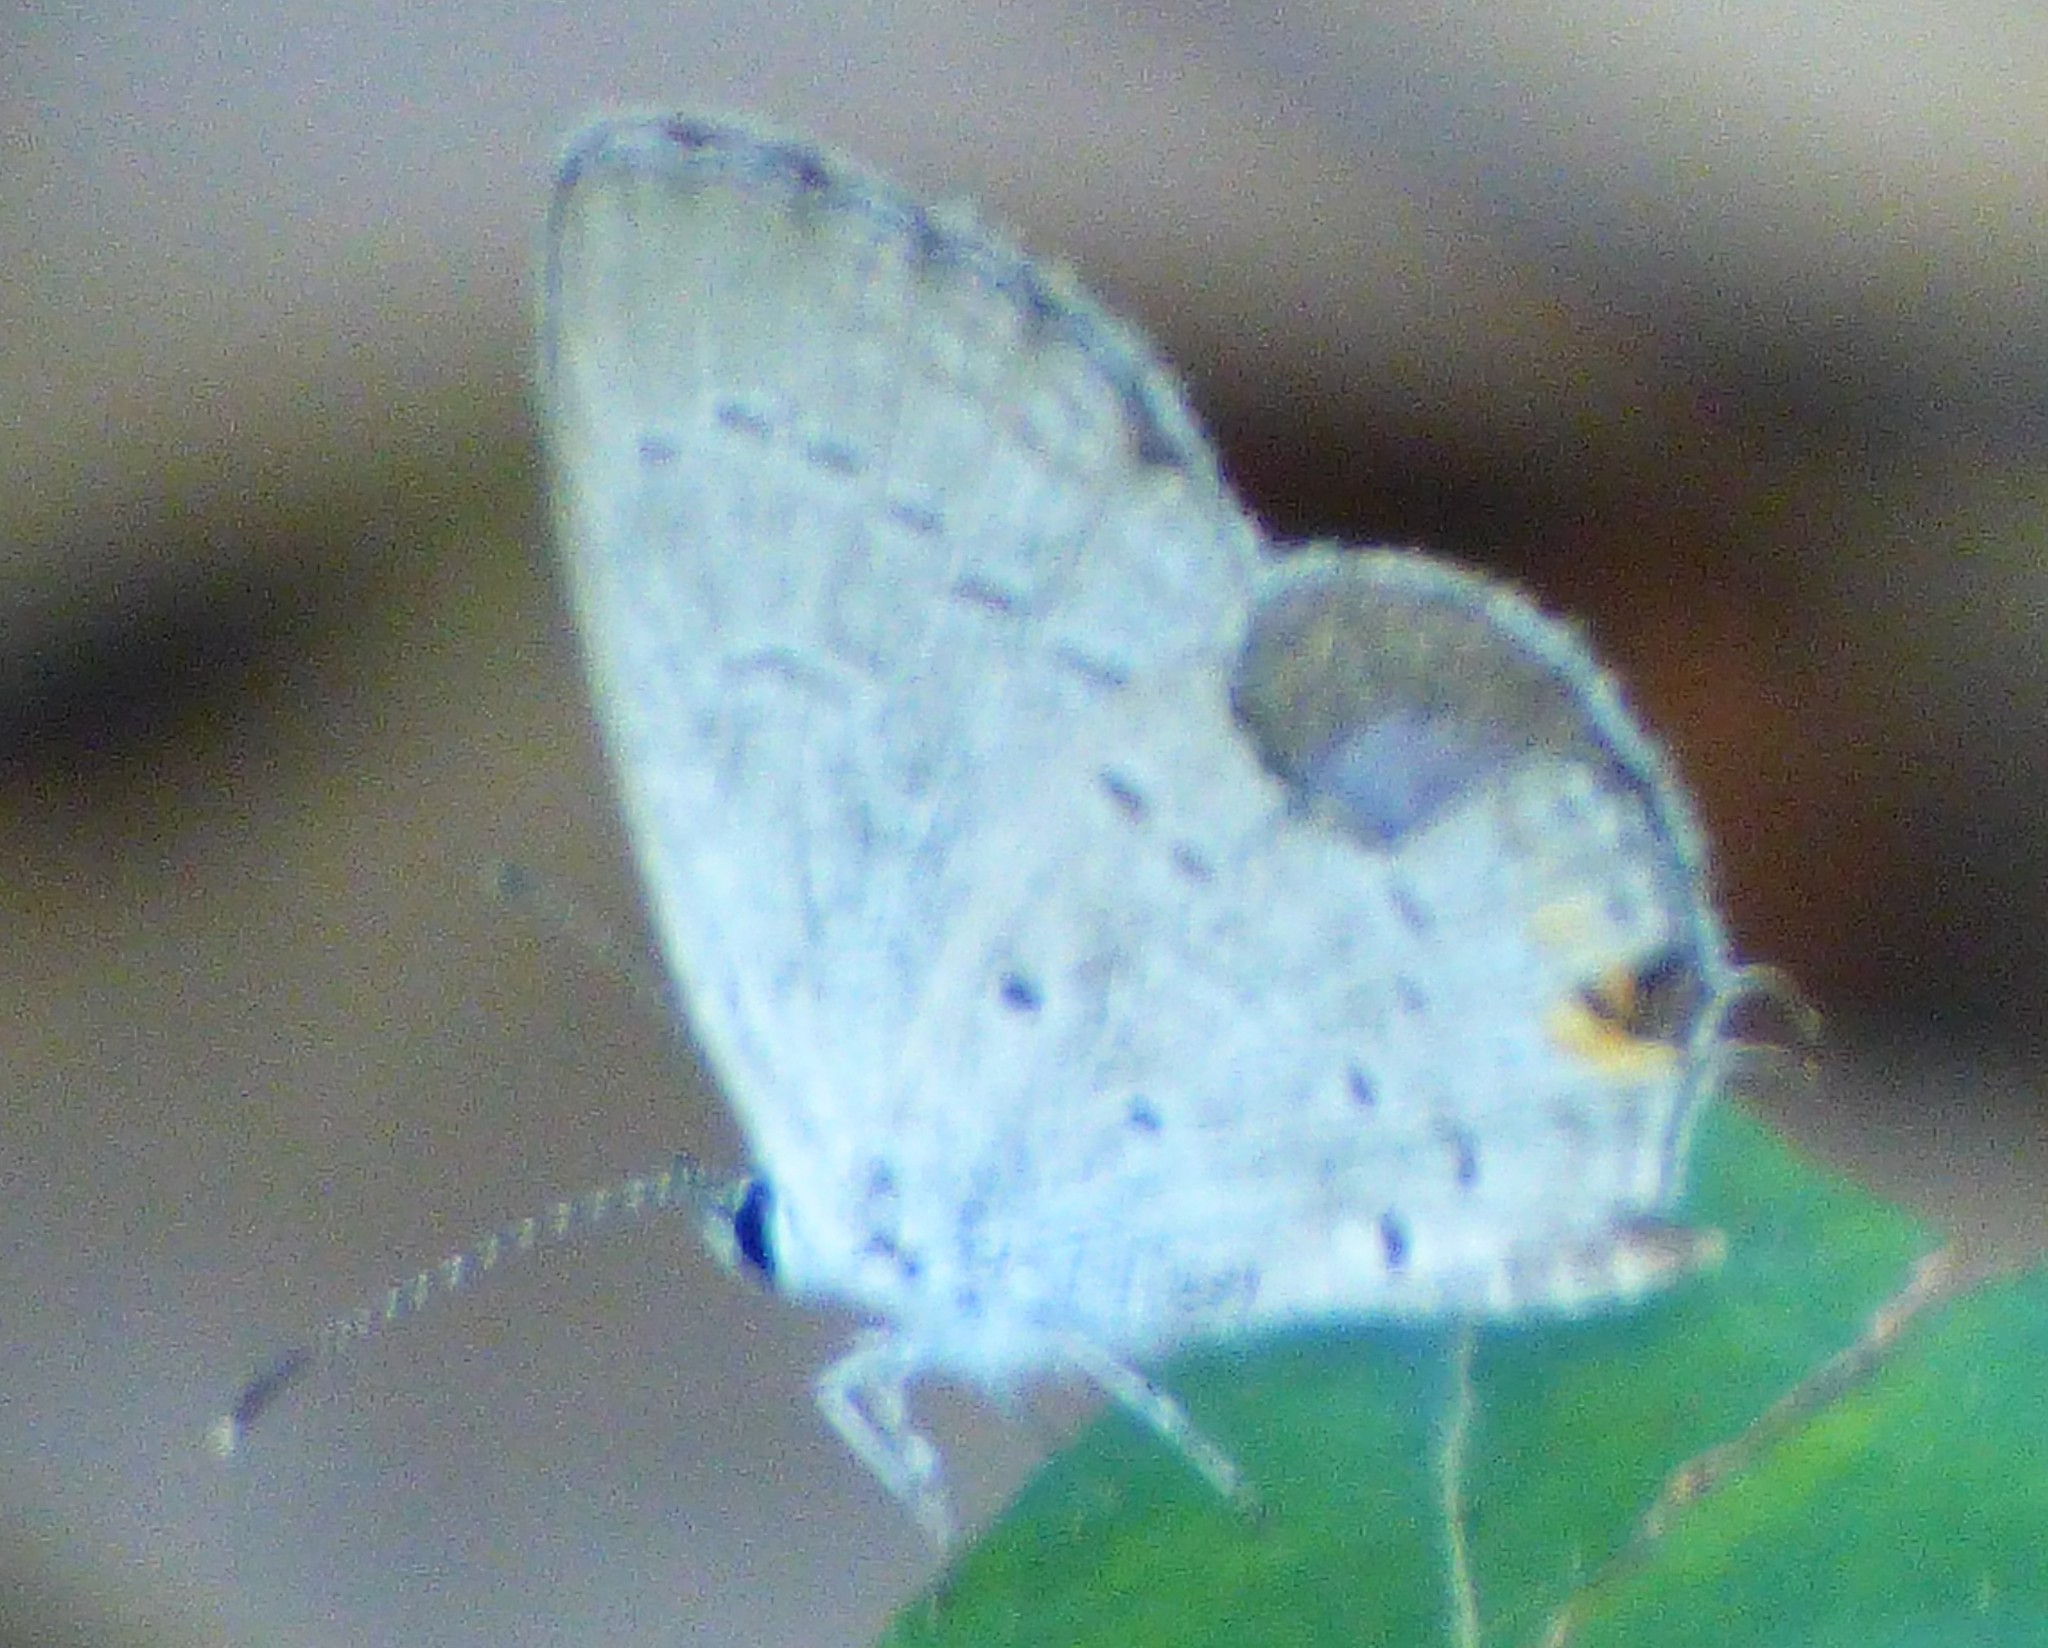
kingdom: Animalia
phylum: Arthropoda
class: Insecta
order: Lepidoptera
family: Lycaenidae
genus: Elkalyce
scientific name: Elkalyce comyntas
